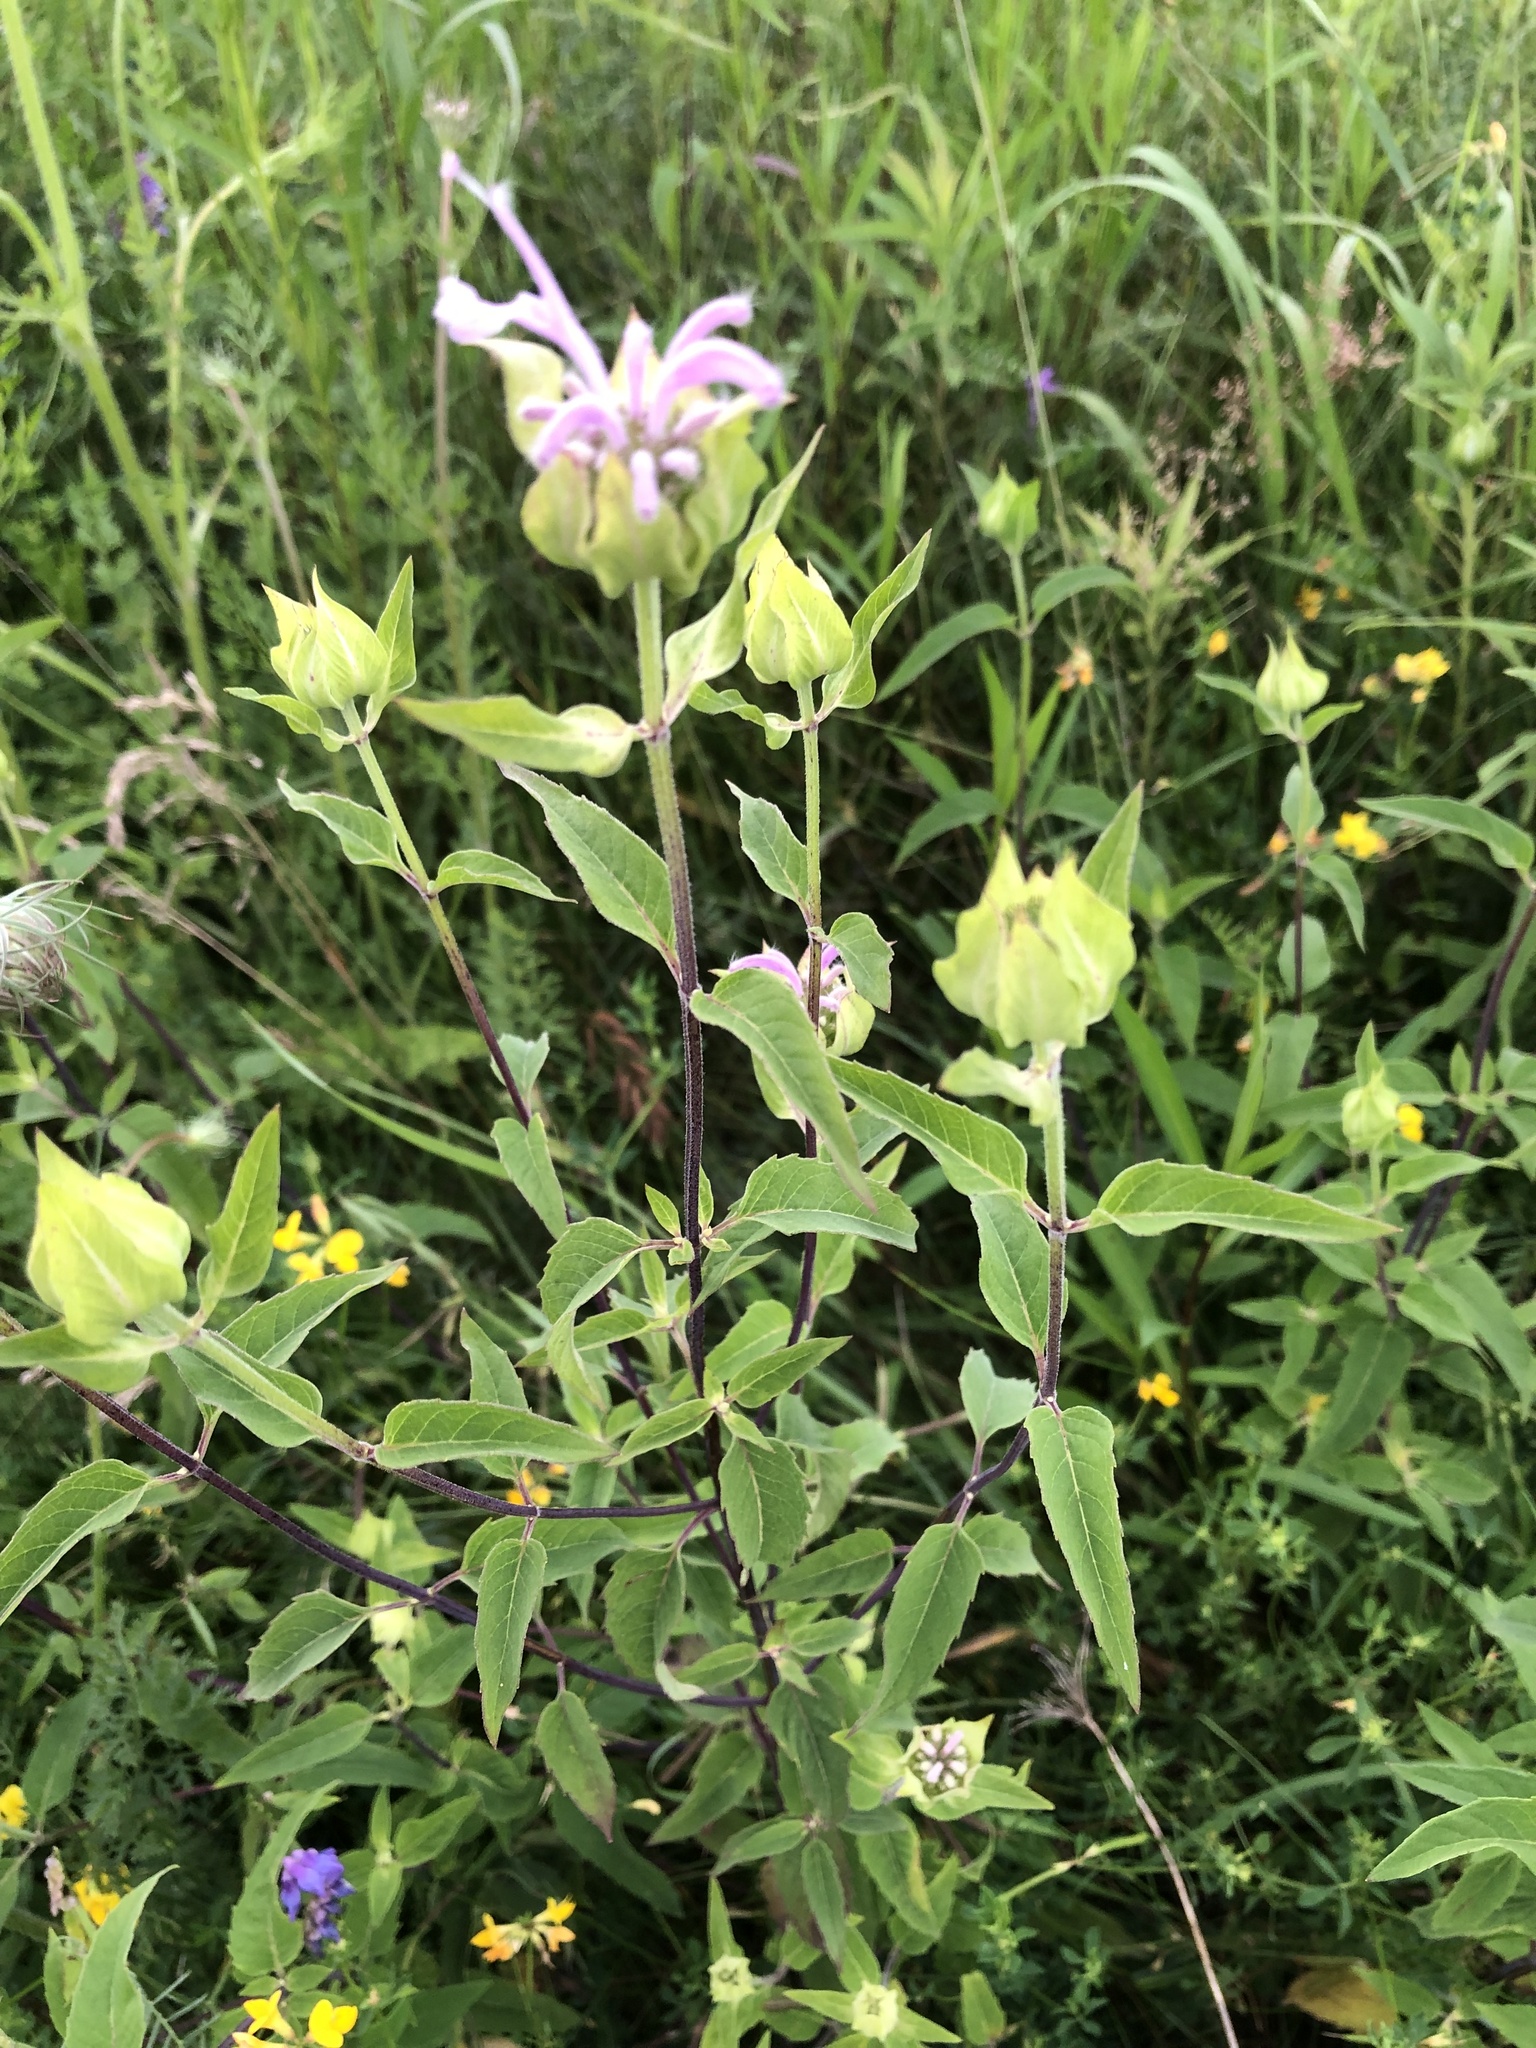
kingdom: Plantae
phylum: Tracheophyta
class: Magnoliopsida
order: Lamiales
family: Lamiaceae
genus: Monarda
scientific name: Monarda fistulosa
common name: Purple beebalm
